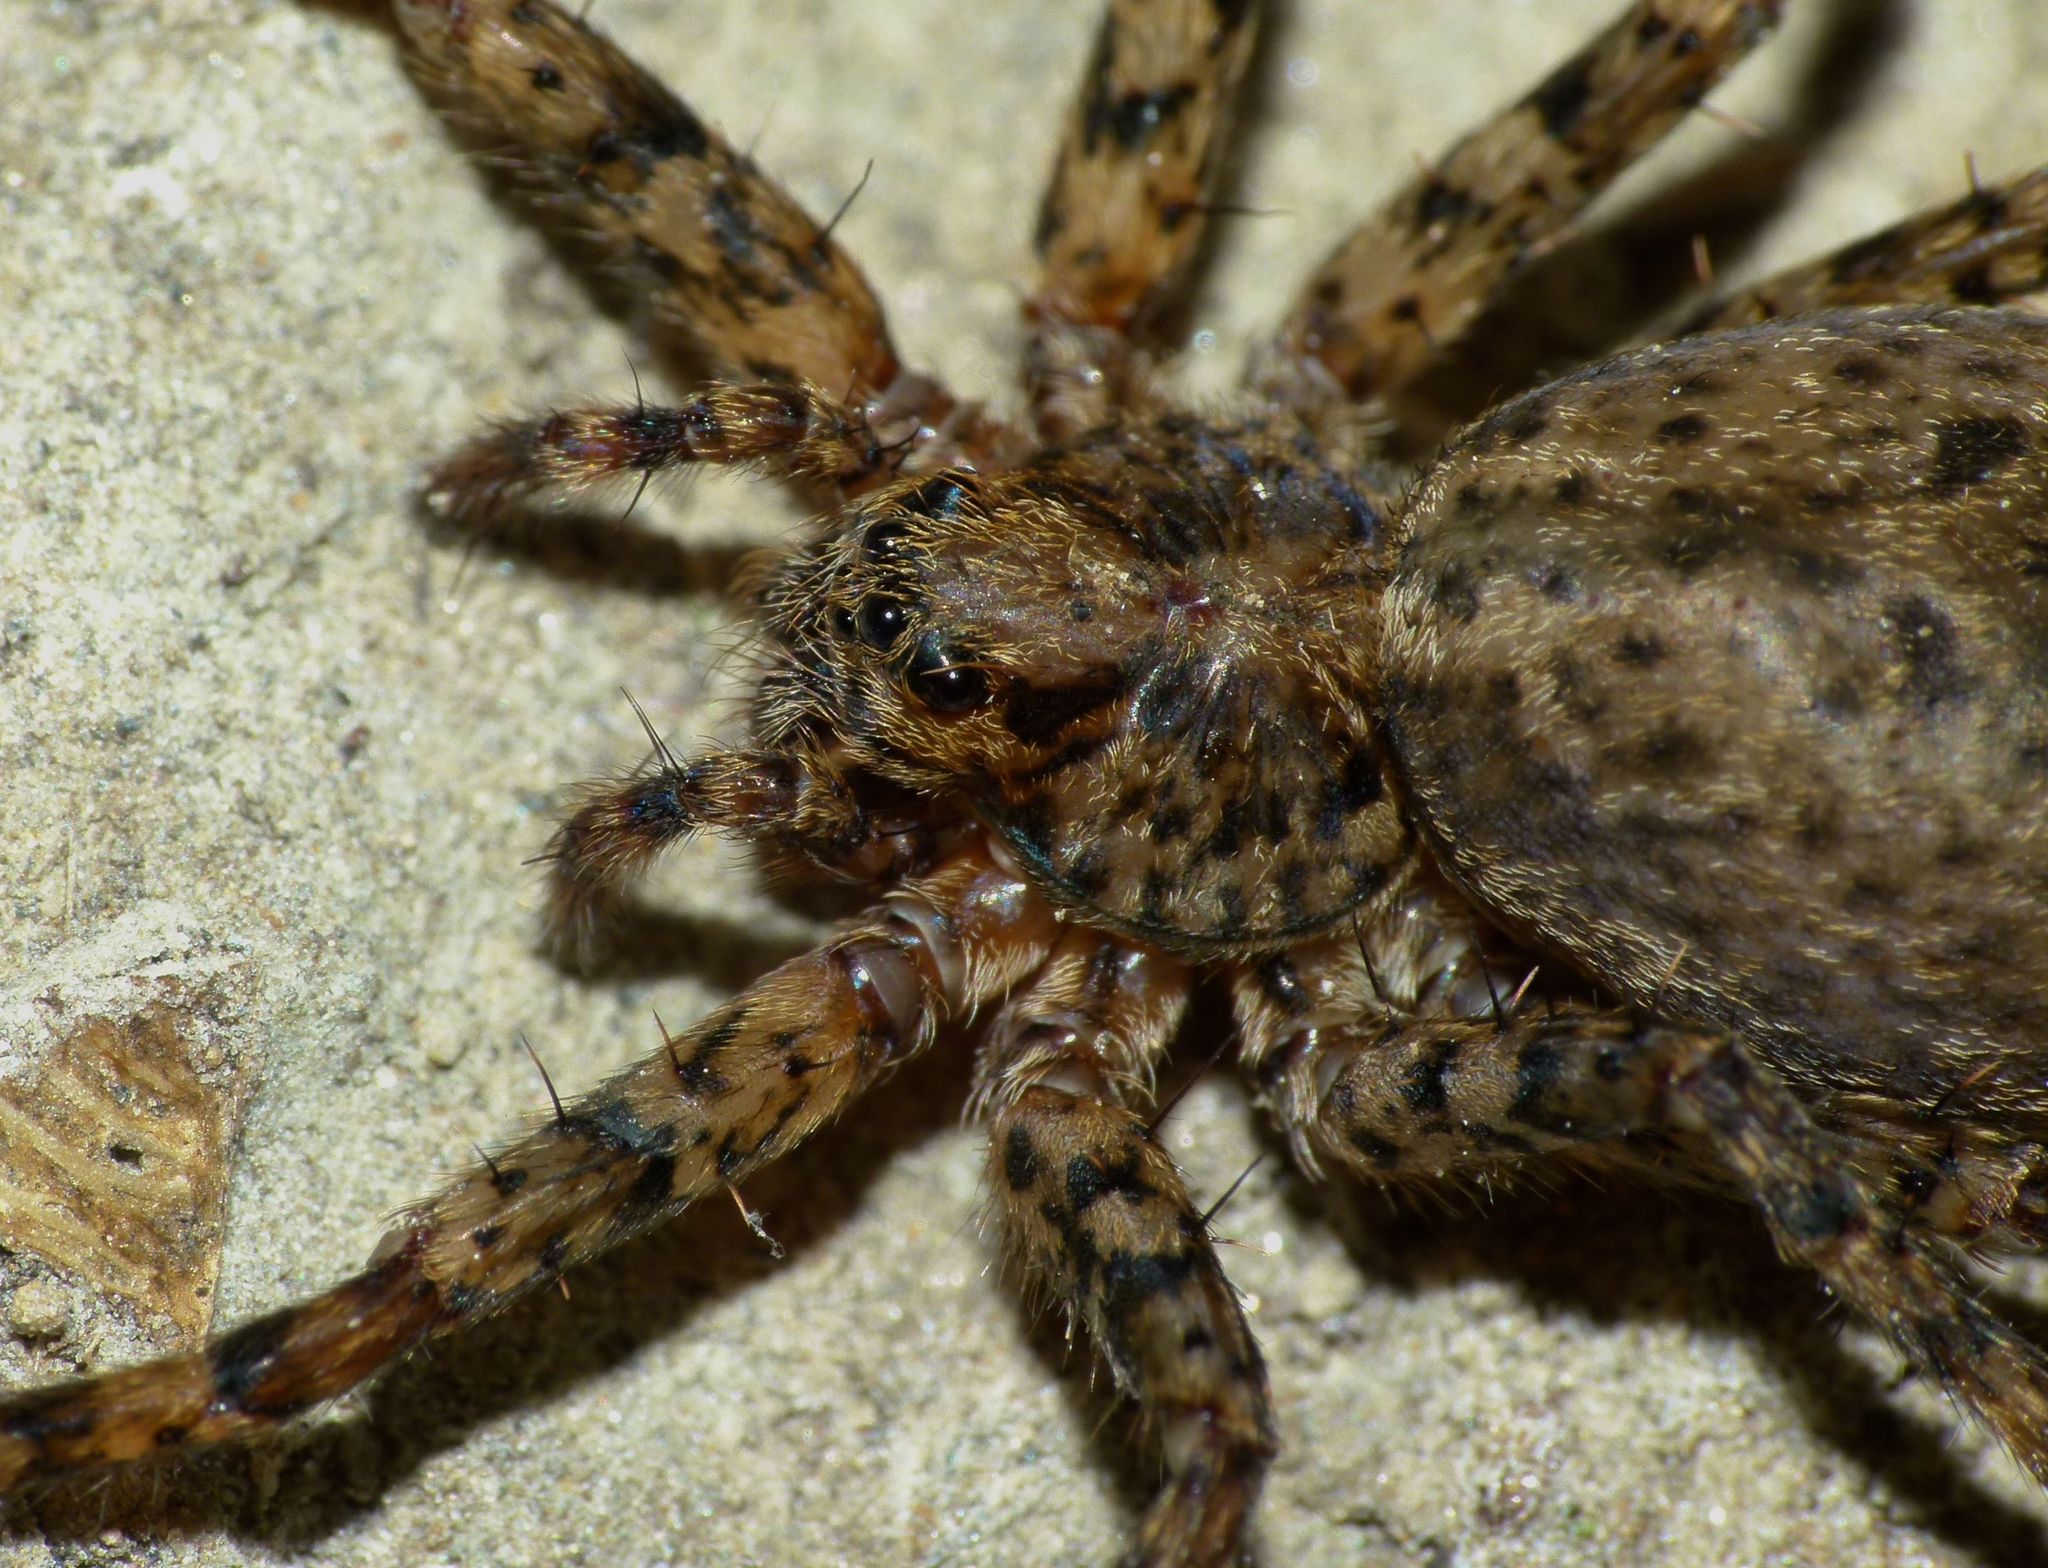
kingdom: Animalia
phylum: Arthropoda
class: Arachnida
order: Araneae
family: Cycloctenidae
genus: Cycloctenus
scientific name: Cycloctenus fugax
